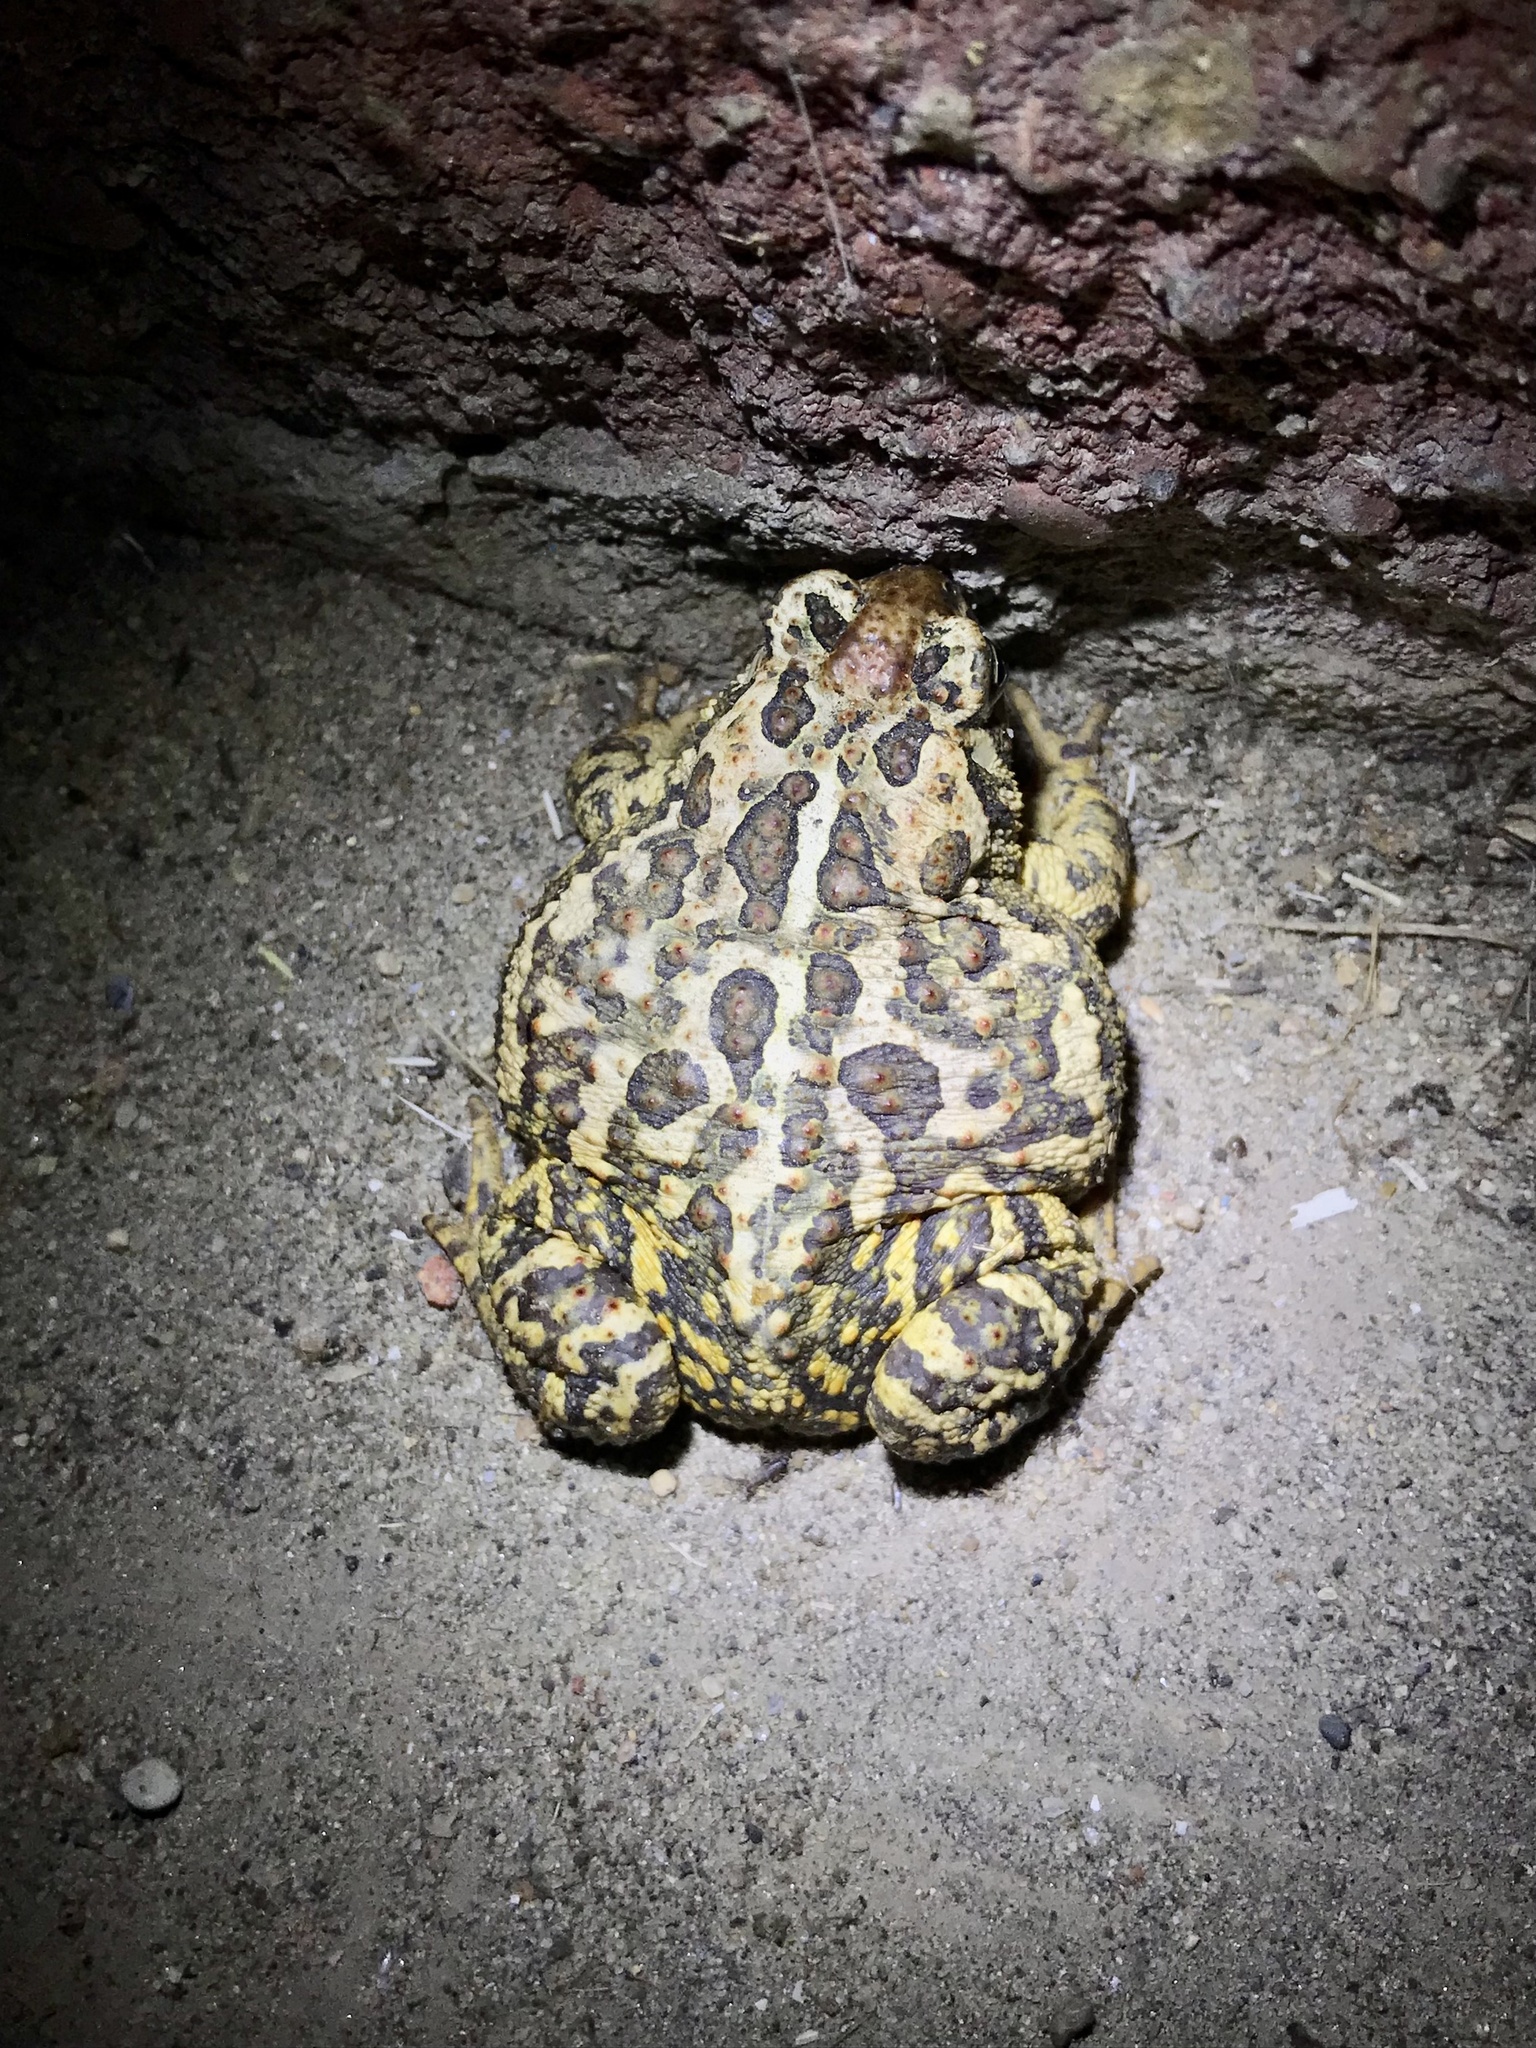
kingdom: Animalia
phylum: Chordata
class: Amphibia
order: Anura
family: Bufonidae
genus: Anaxyrus
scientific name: Anaxyrus hemiophrys
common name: Canadian toad
